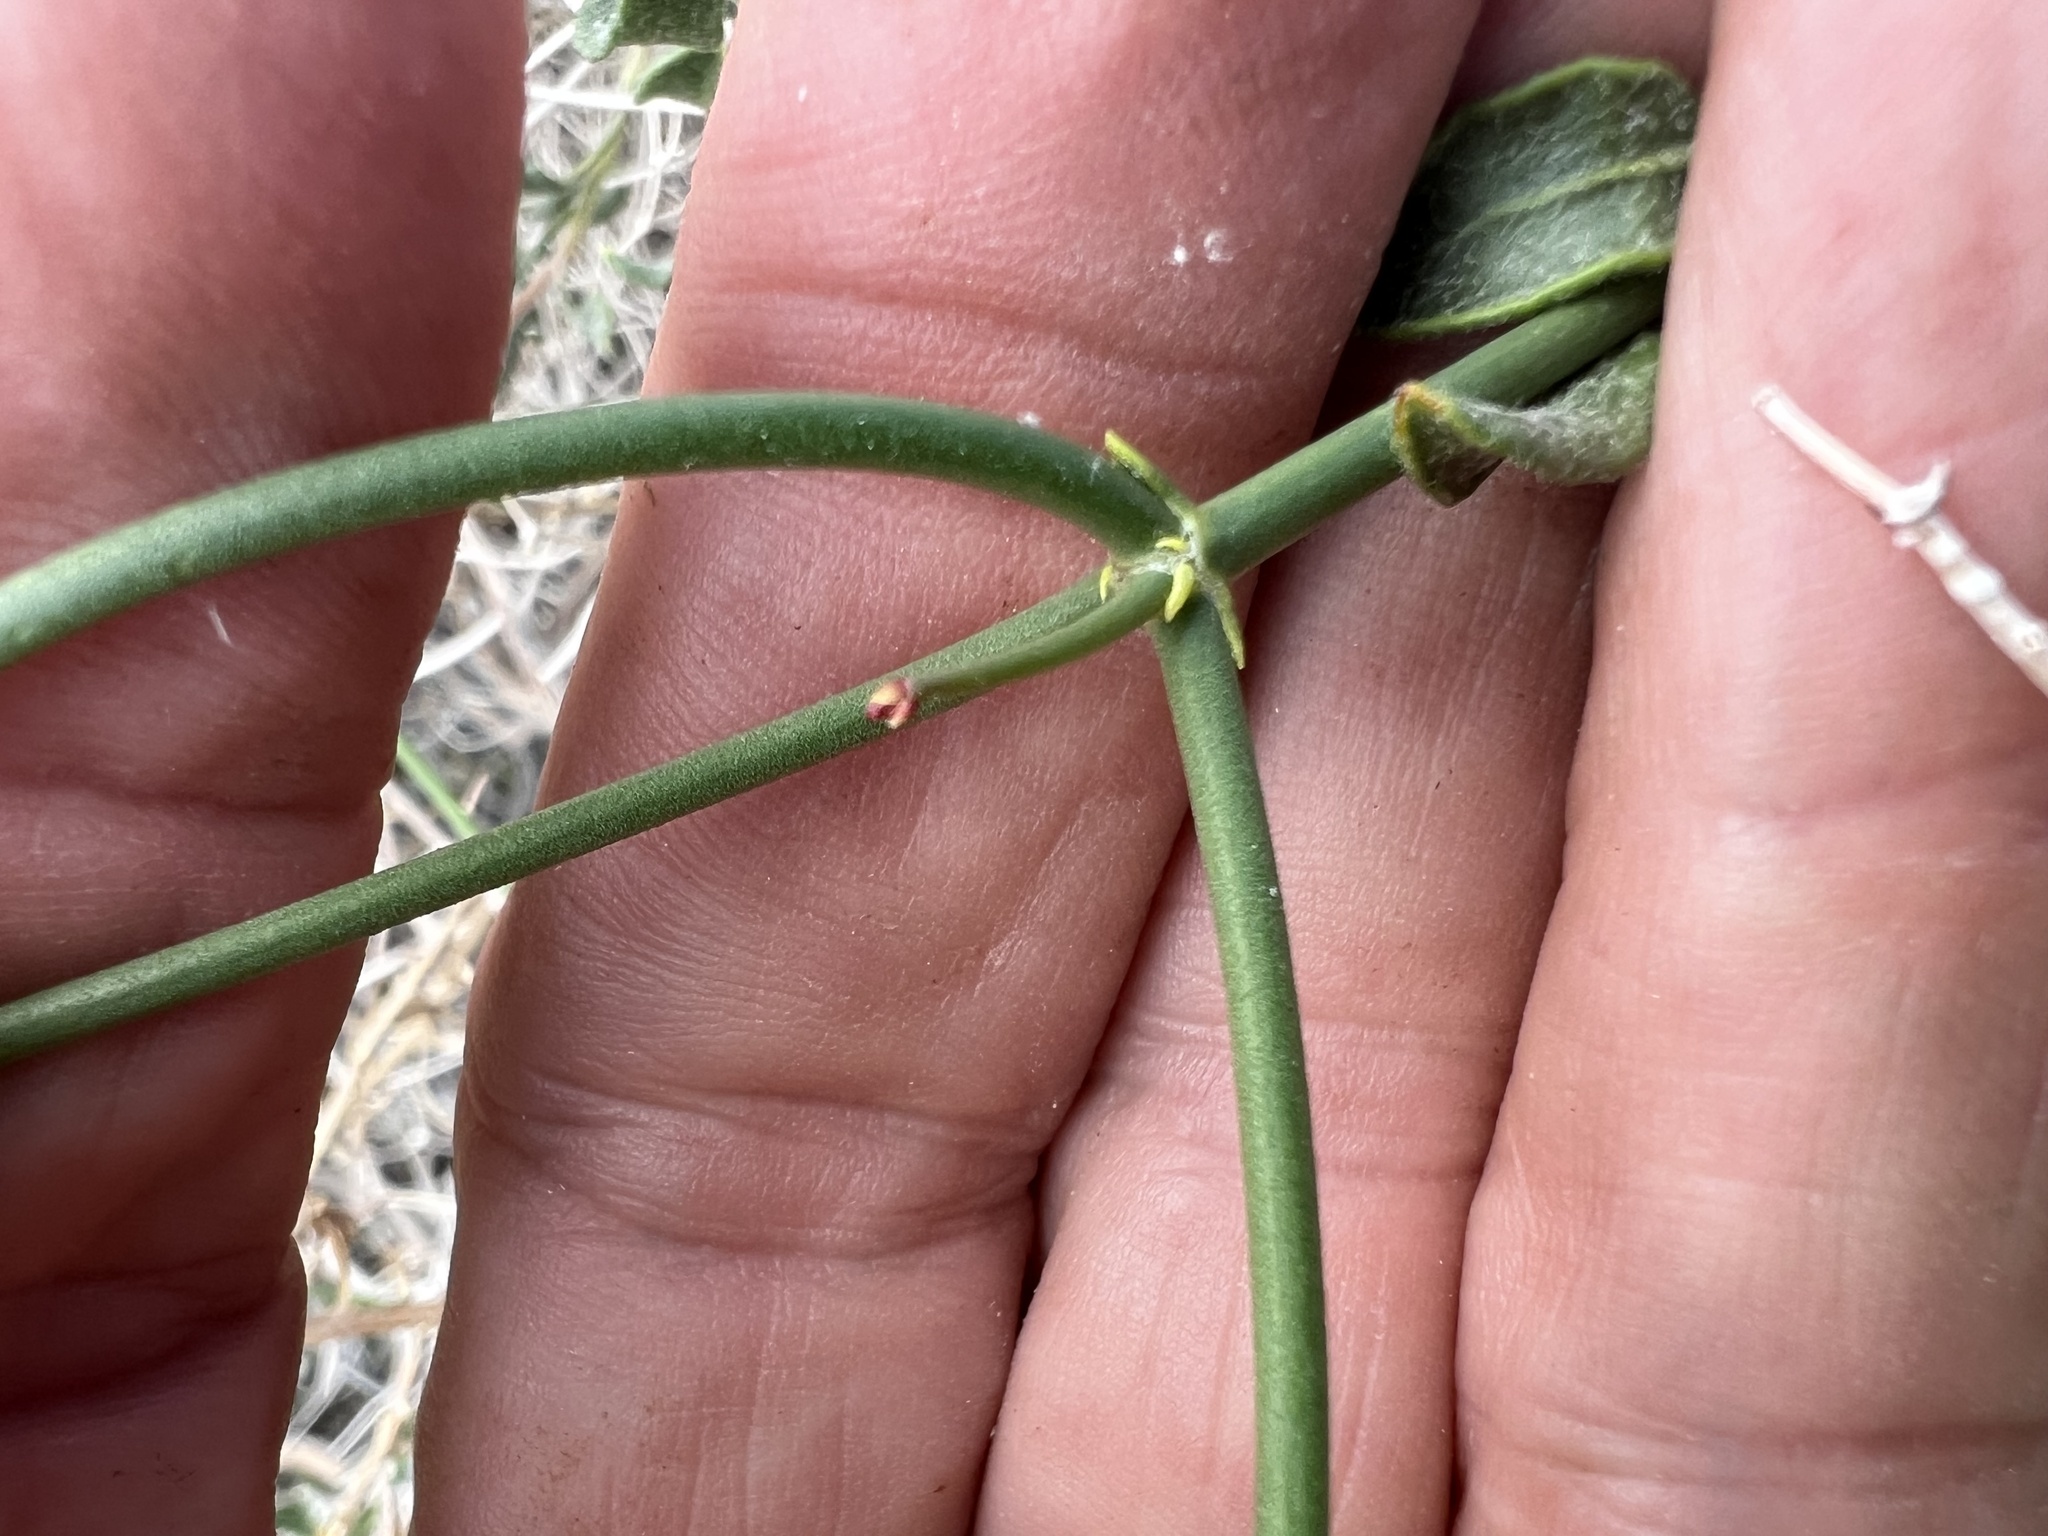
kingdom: Plantae
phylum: Tracheophyta
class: Magnoliopsida
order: Caryophyllales
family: Polygonaceae
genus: Eriogonum
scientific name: Eriogonum heermannii
